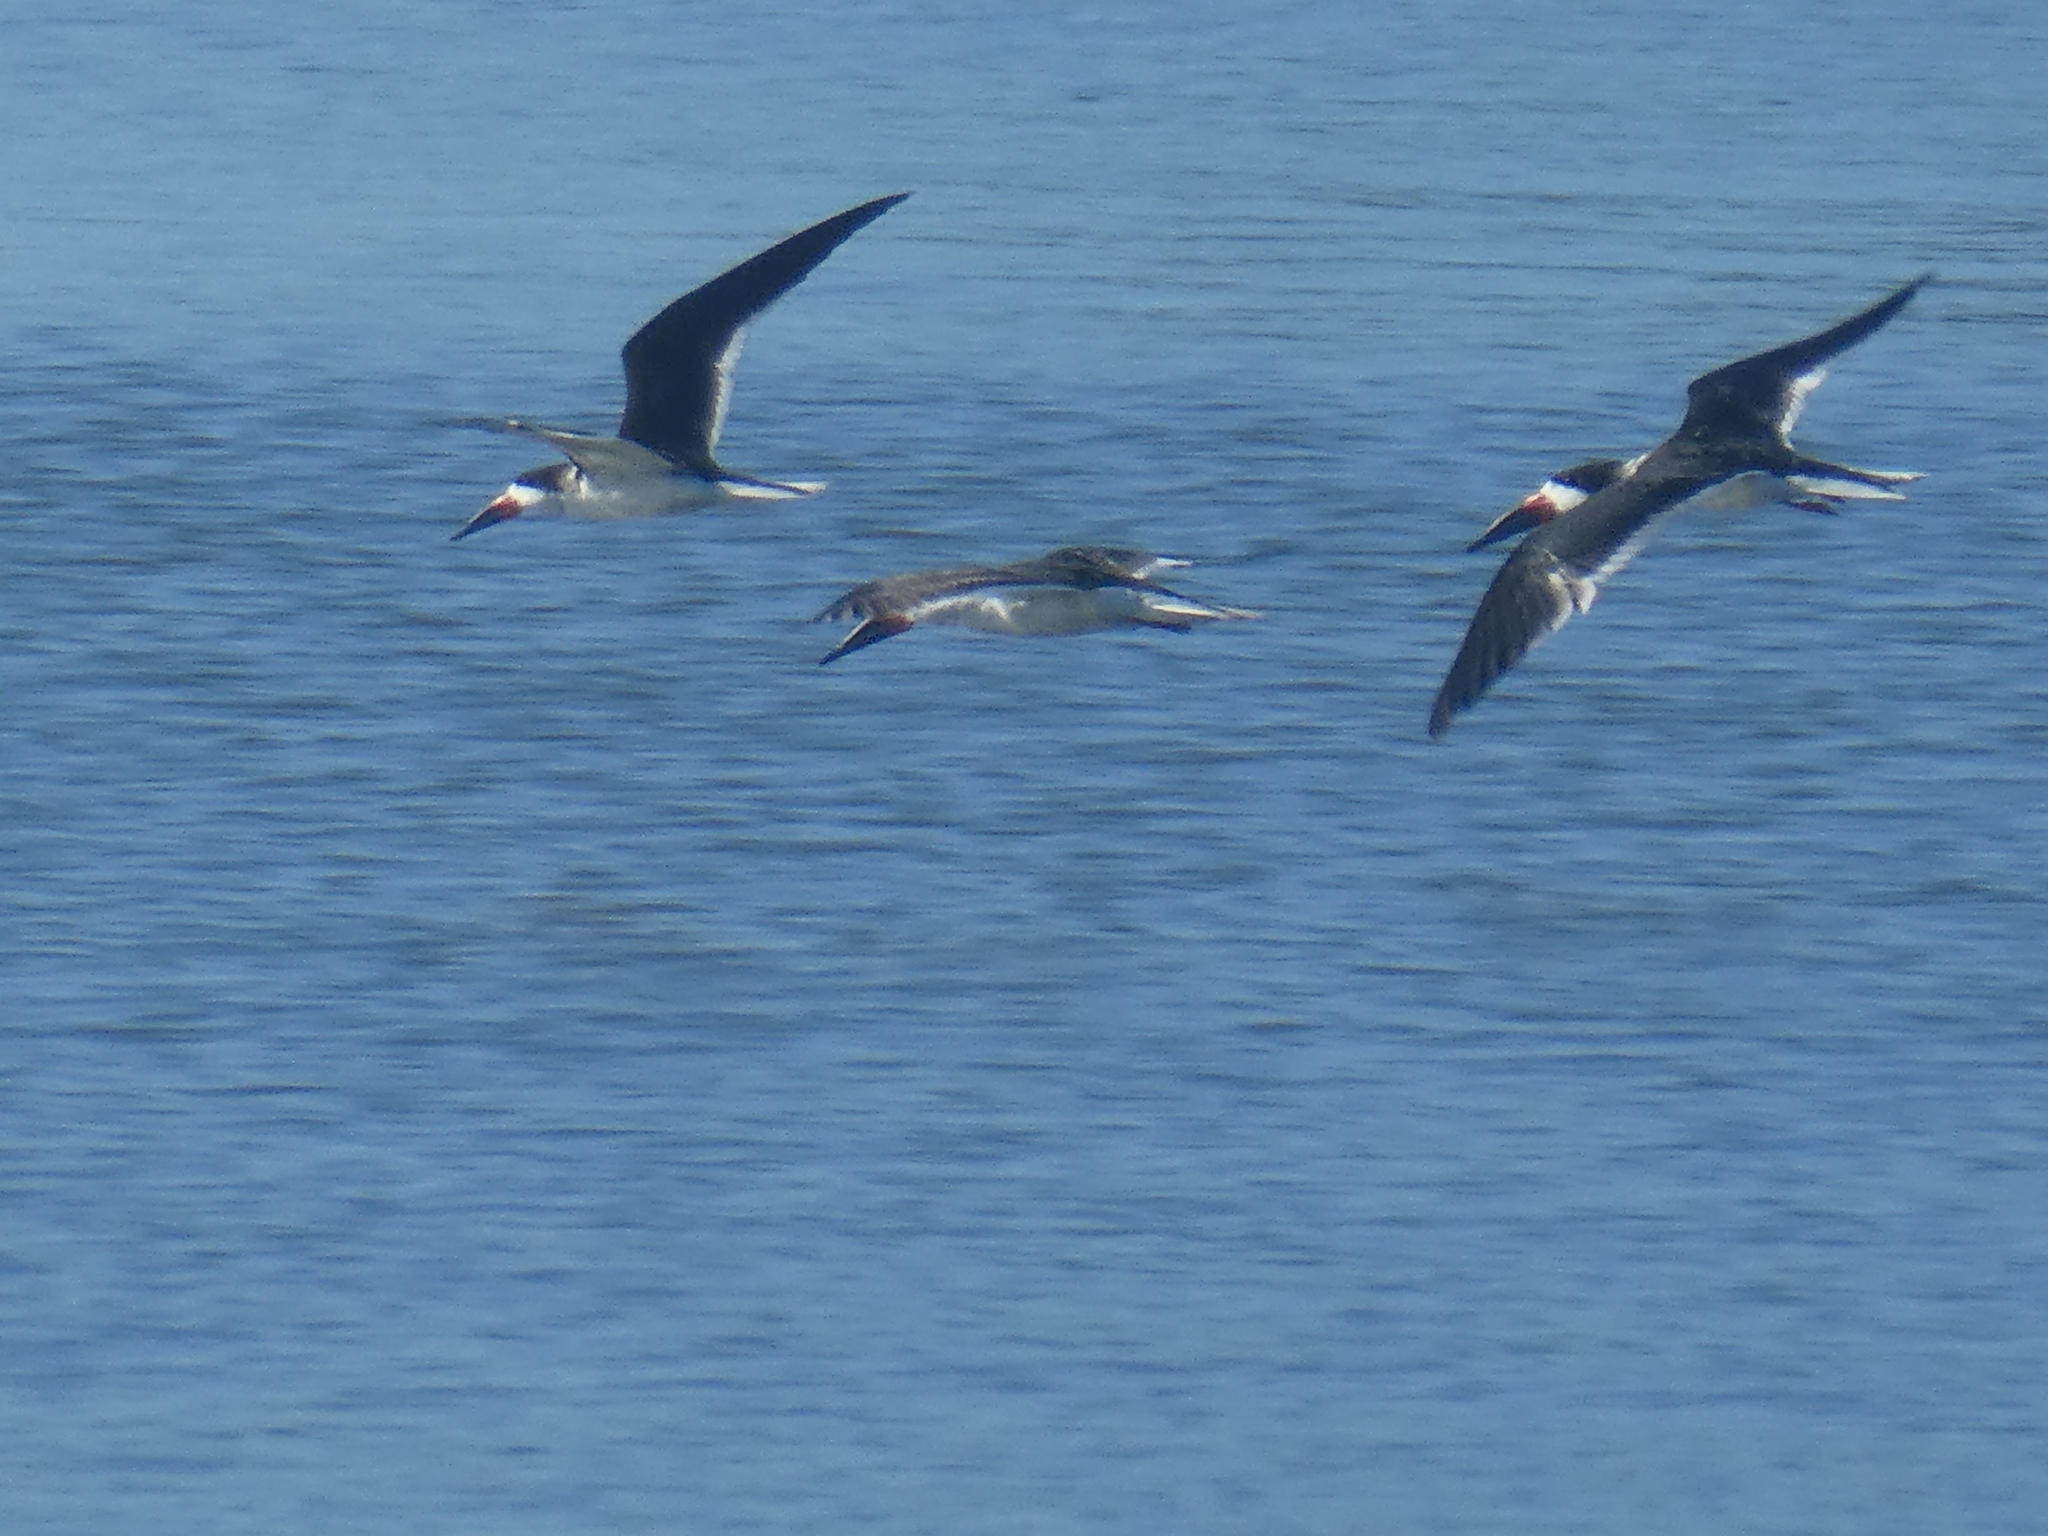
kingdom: Animalia
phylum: Chordata
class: Aves
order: Charadriiformes
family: Laridae
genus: Rynchops
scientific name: Rynchops niger
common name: Black skimmer
